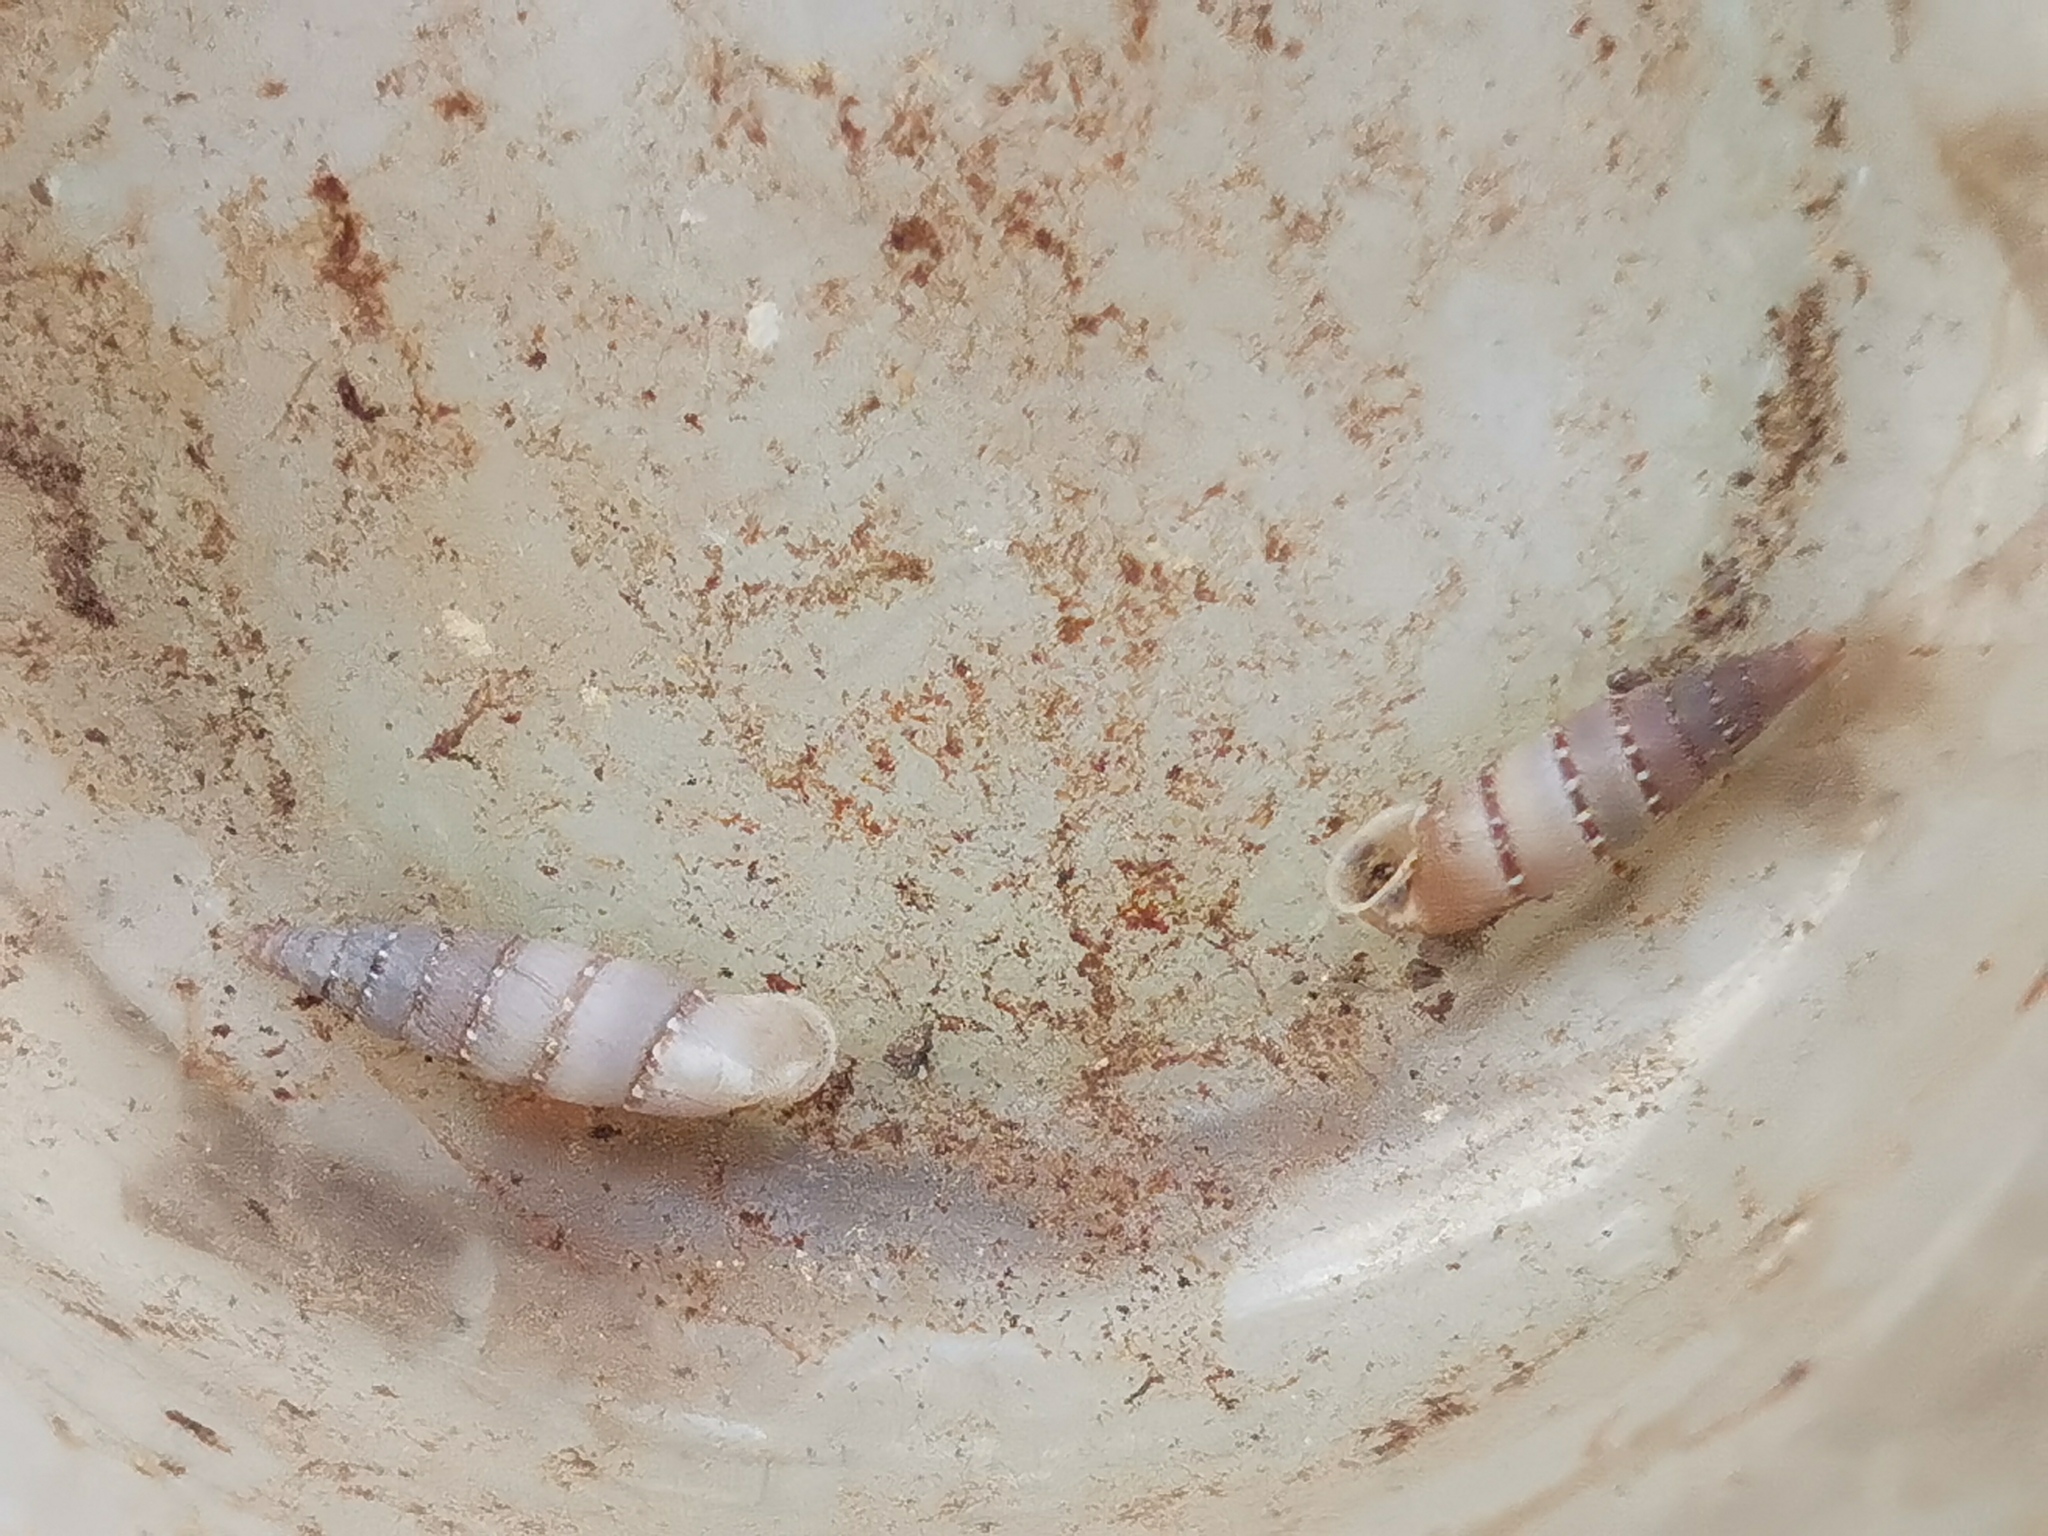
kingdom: Animalia
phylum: Mollusca
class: Gastropoda
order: Stylommatophora
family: Clausiliidae
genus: Papillifera
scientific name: Papillifera papillaris
